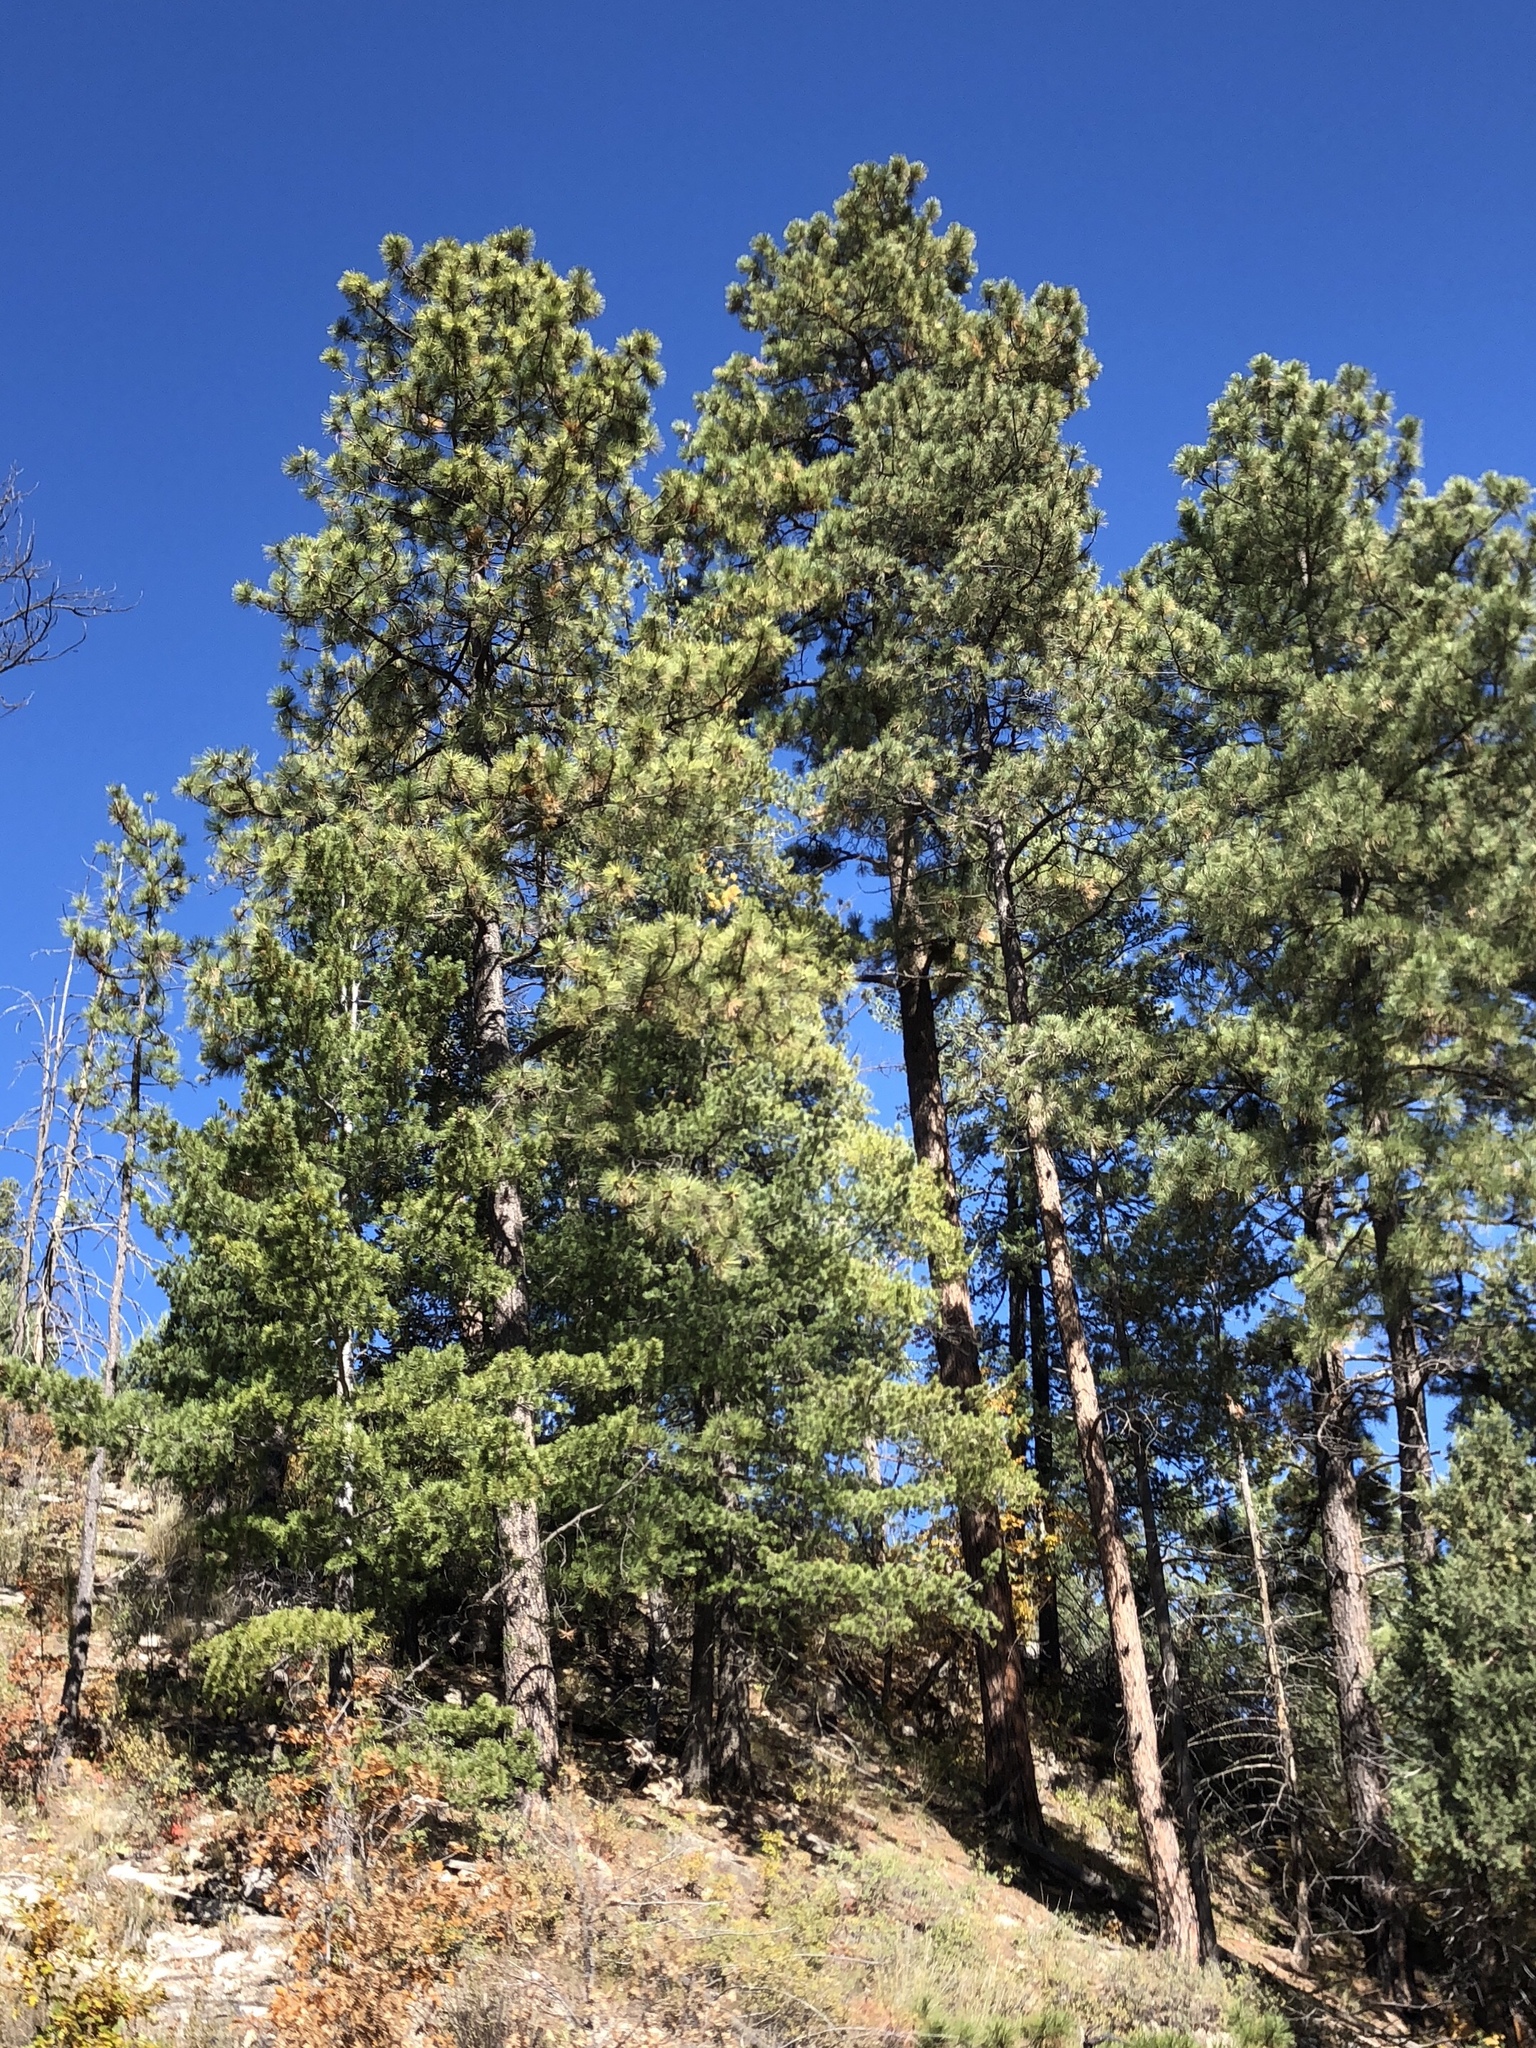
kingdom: Plantae
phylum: Tracheophyta
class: Pinopsida
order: Pinales
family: Pinaceae
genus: Pinus
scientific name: Pinus ponderosa
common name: Western yellow-pine
